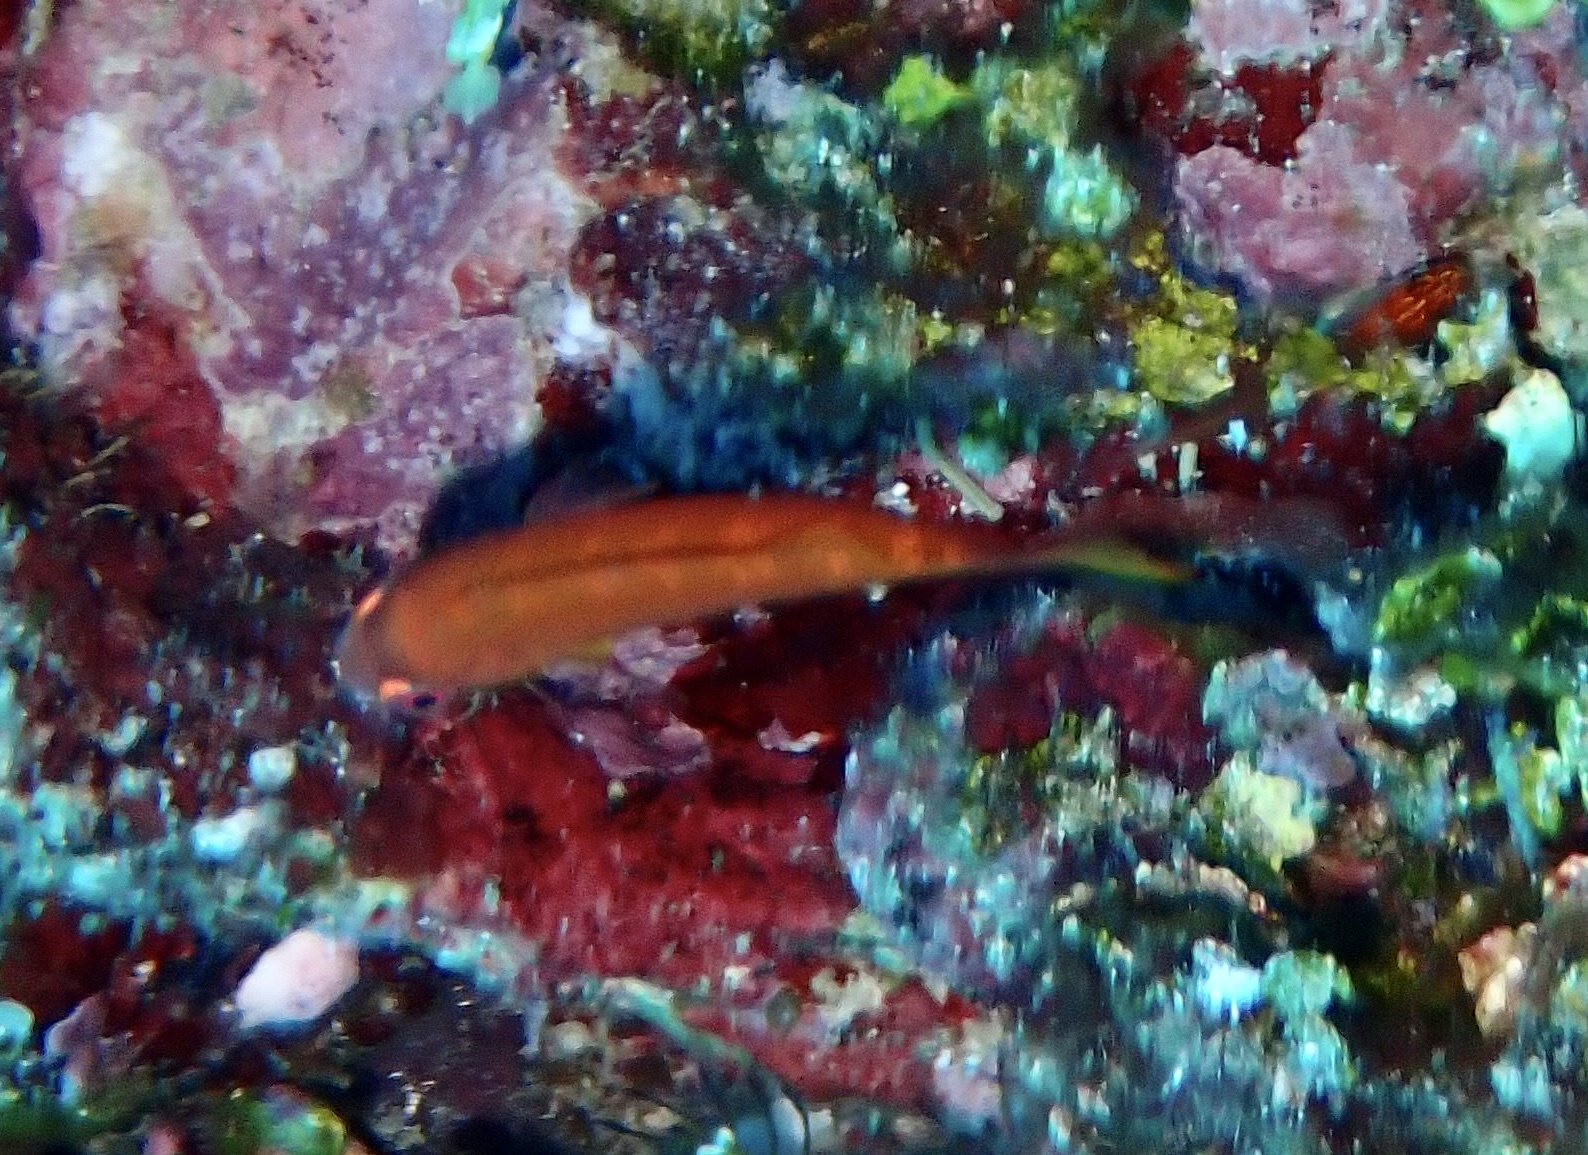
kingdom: Animalia
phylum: Chordata
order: Perciformes
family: Labridae
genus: Paracheilinus
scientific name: Paracheilinus paineorum
